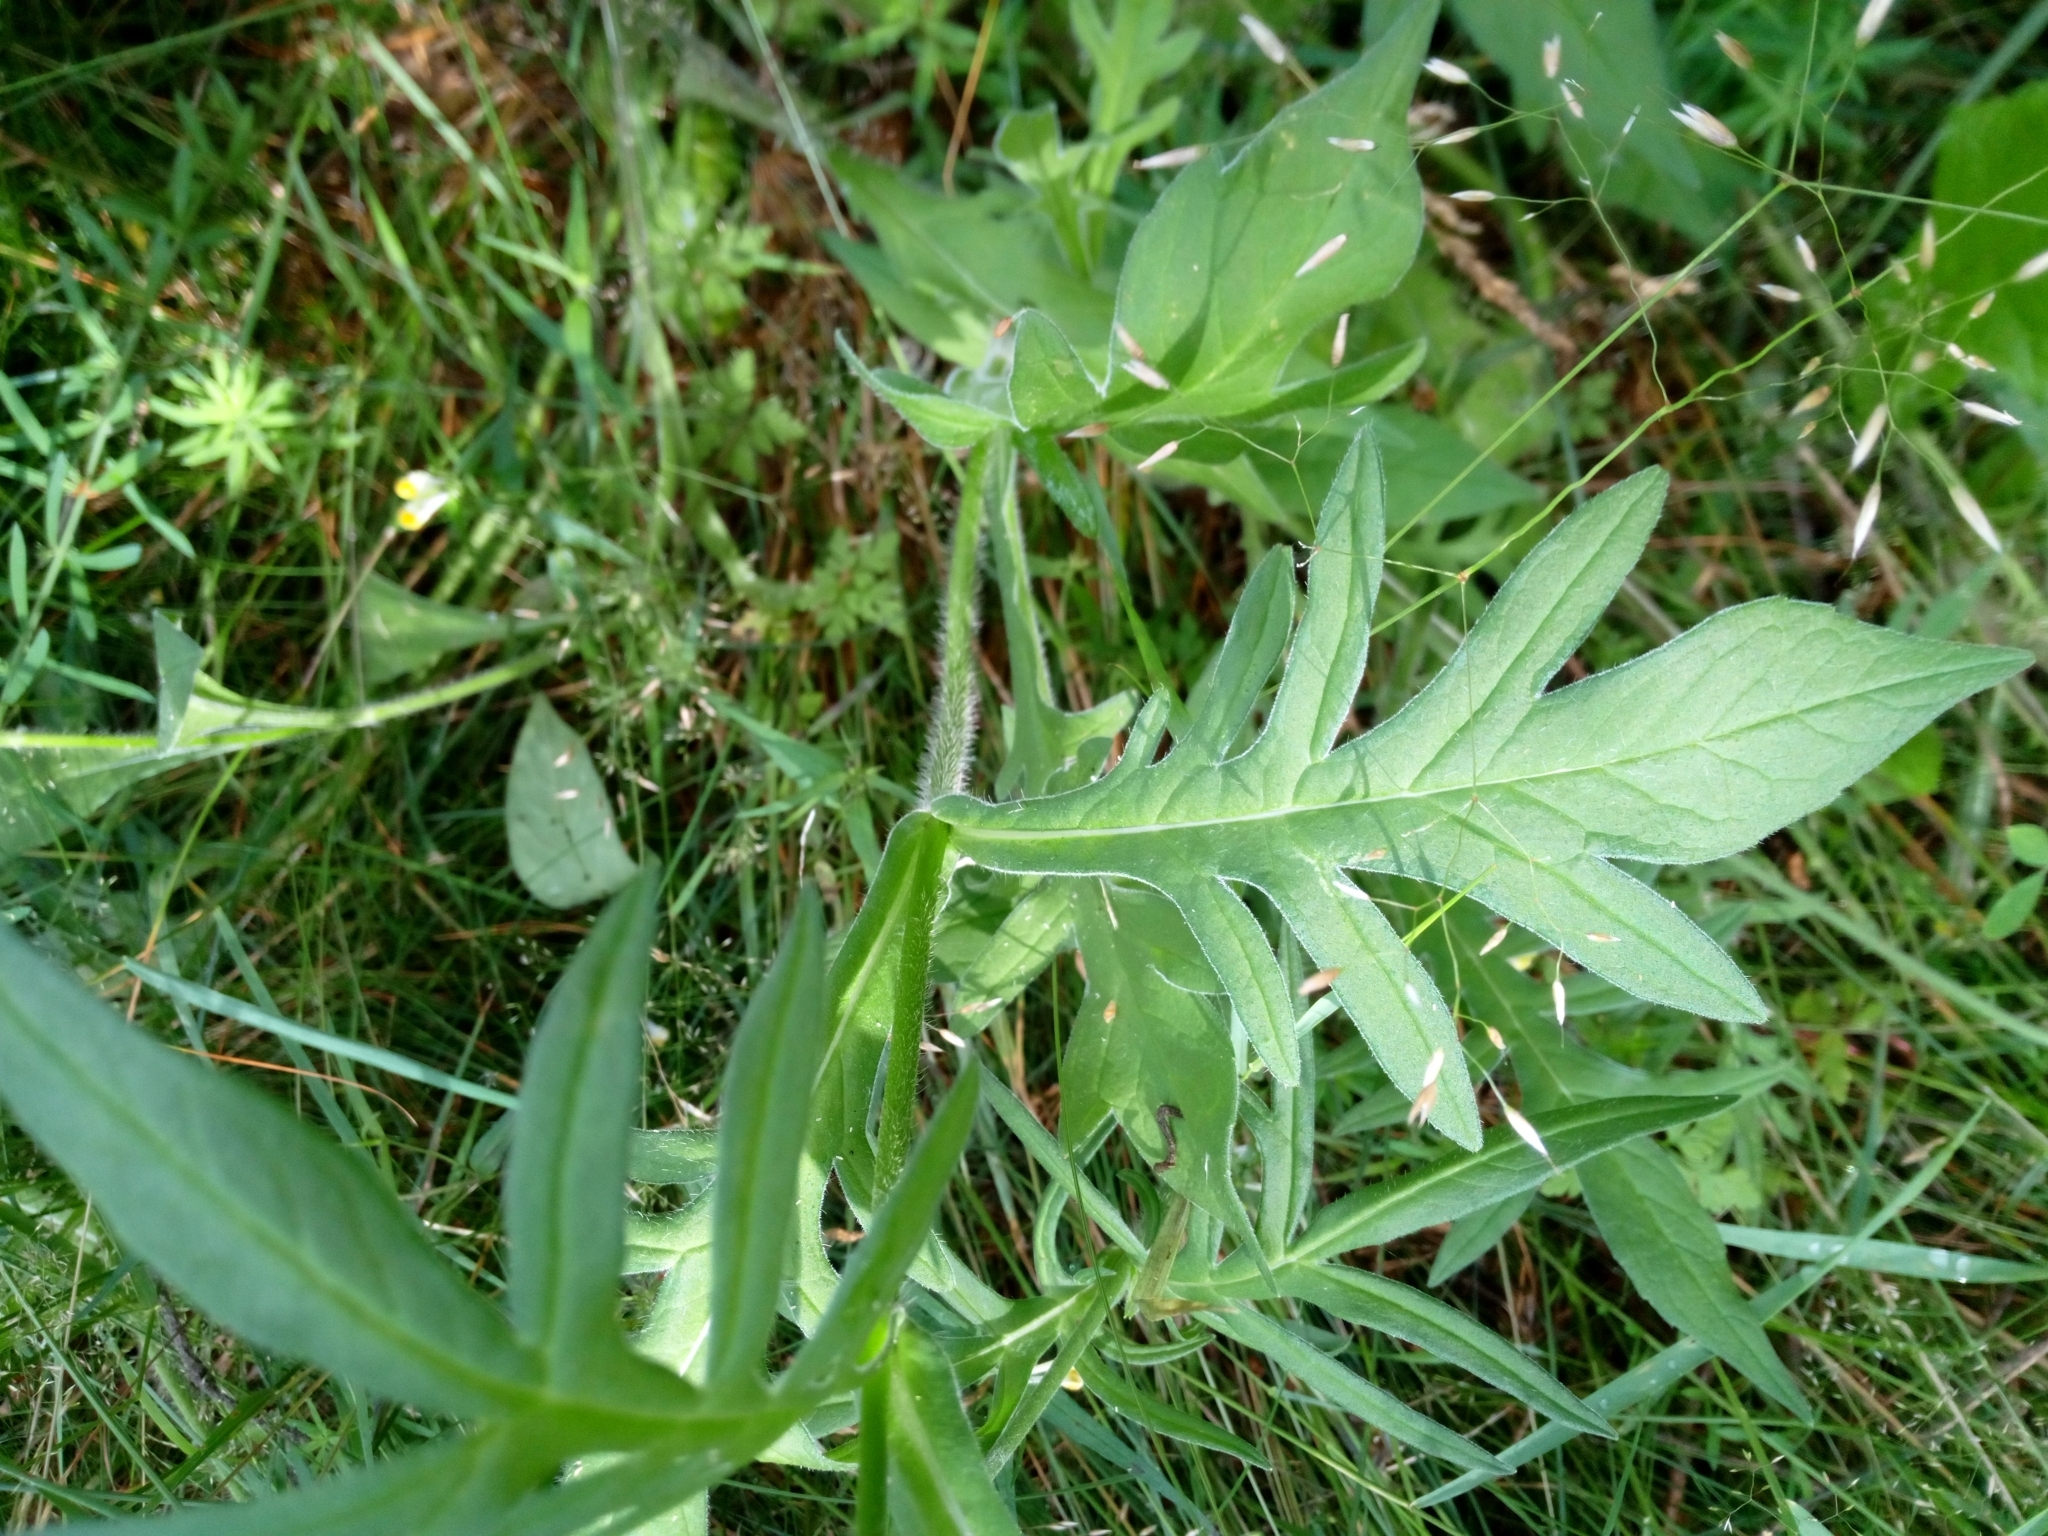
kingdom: Plantae
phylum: Tracheophyta
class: Magnoliopsida
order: Dipsacales
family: Caprifoliaceae
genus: Knautia
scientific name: Knautia arvensis
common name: Field scabiosa
